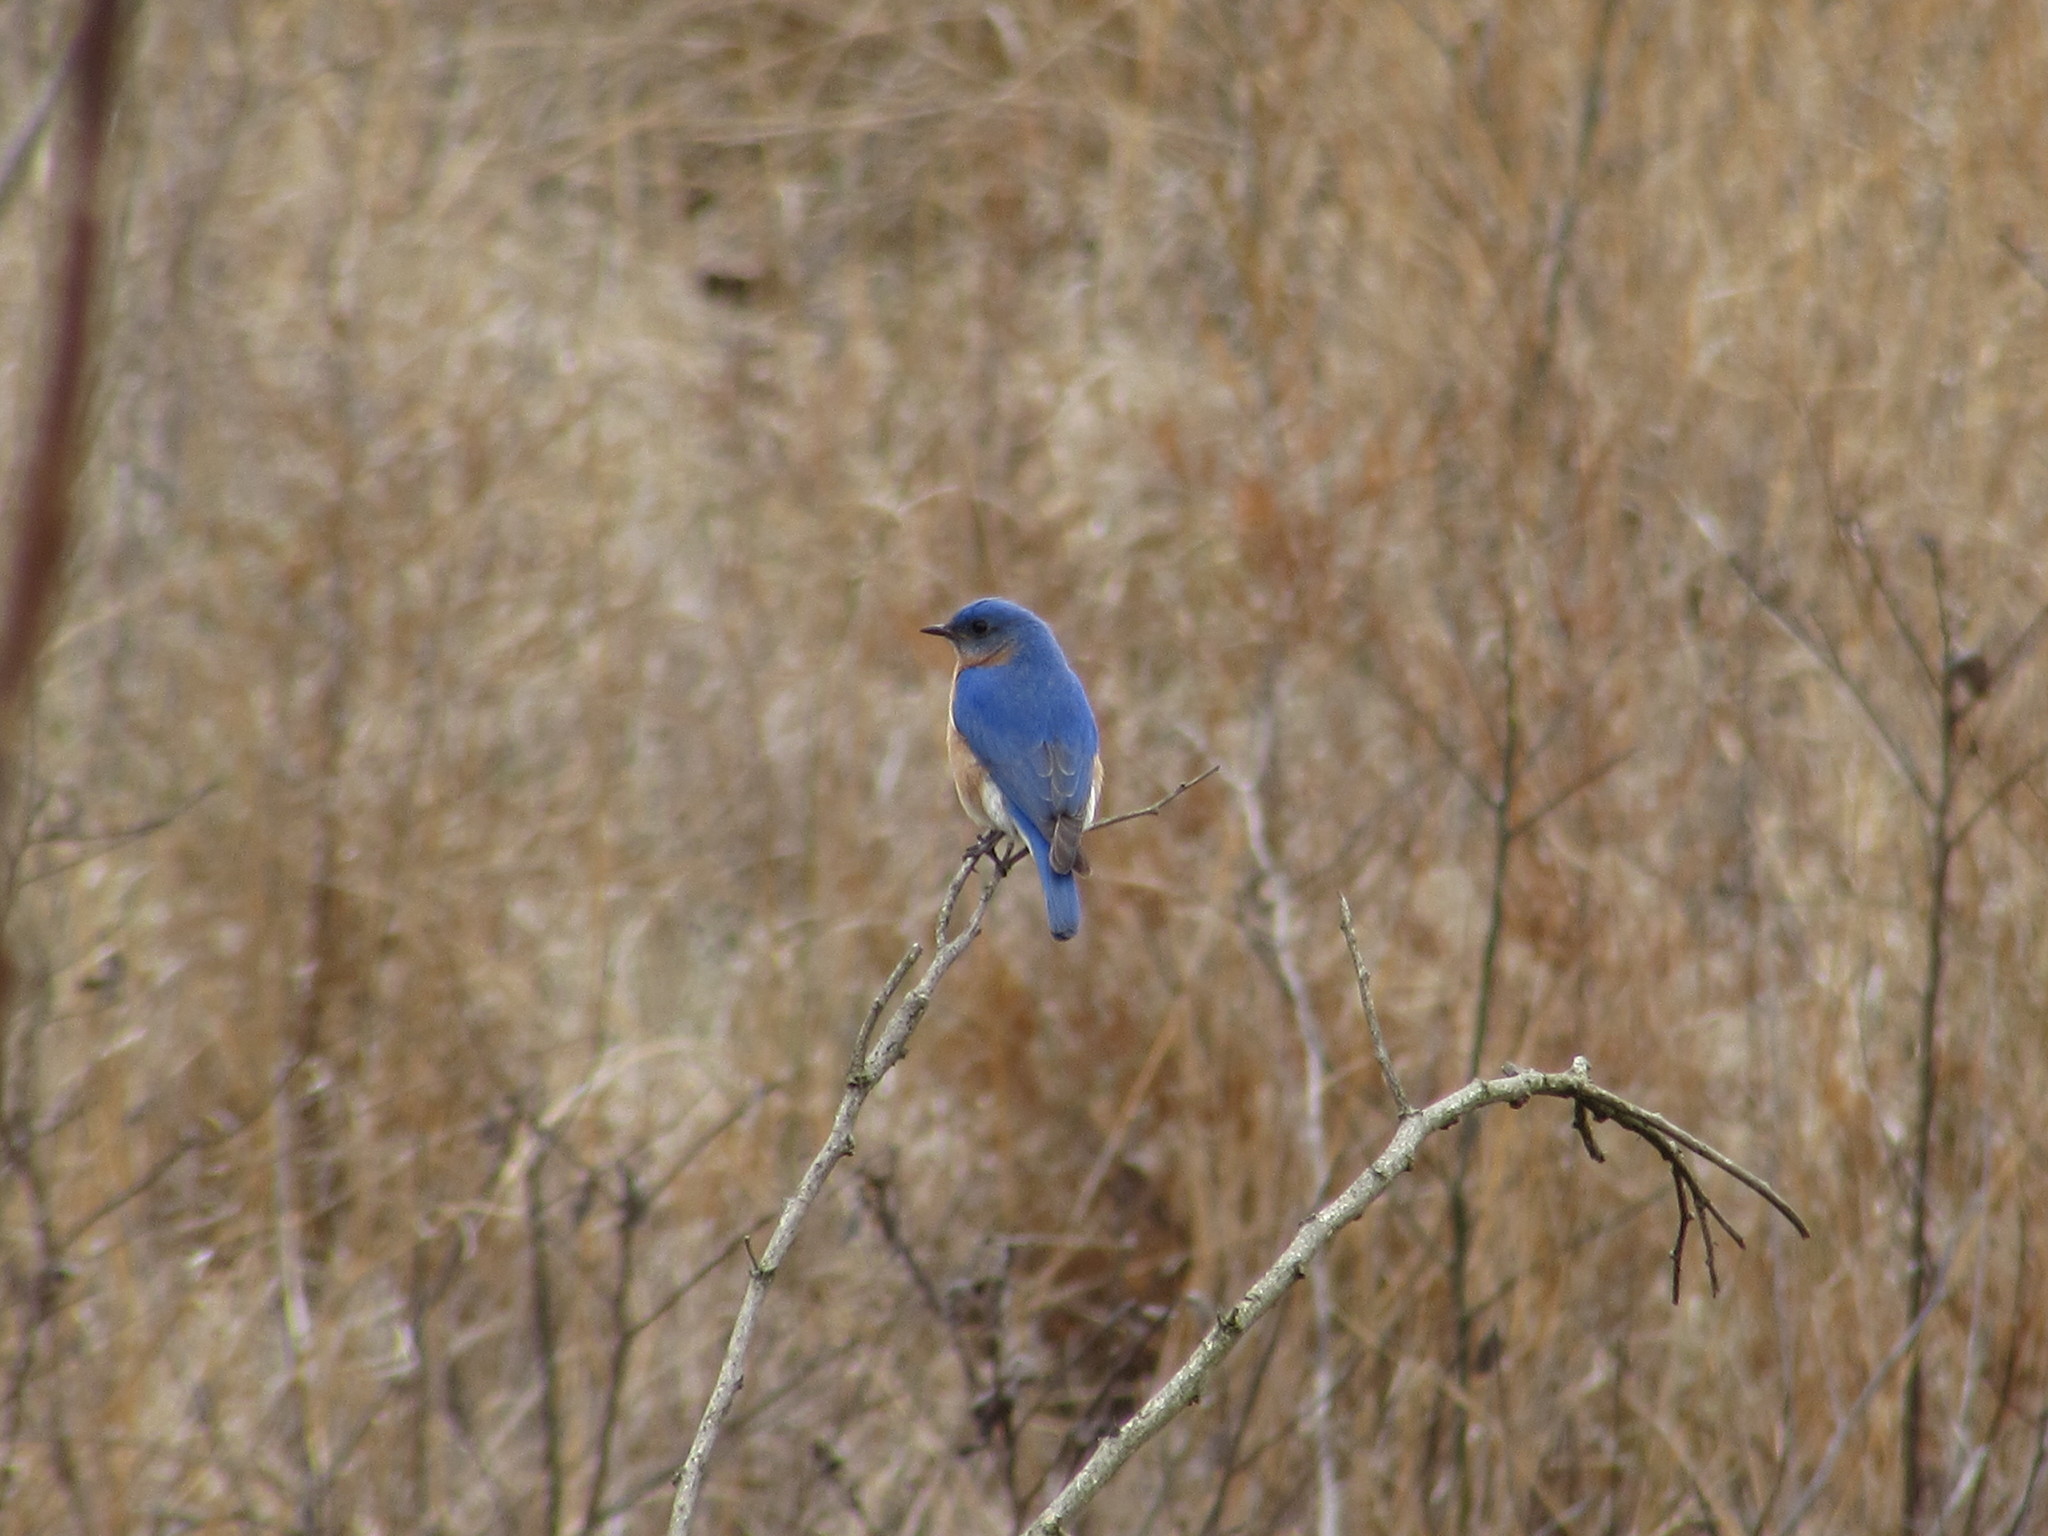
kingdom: Animalia
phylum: Chordata
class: Aves
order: Passeriformes
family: Turdidae
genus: Sialia
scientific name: Sialia sialis
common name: Eastern bluebird
